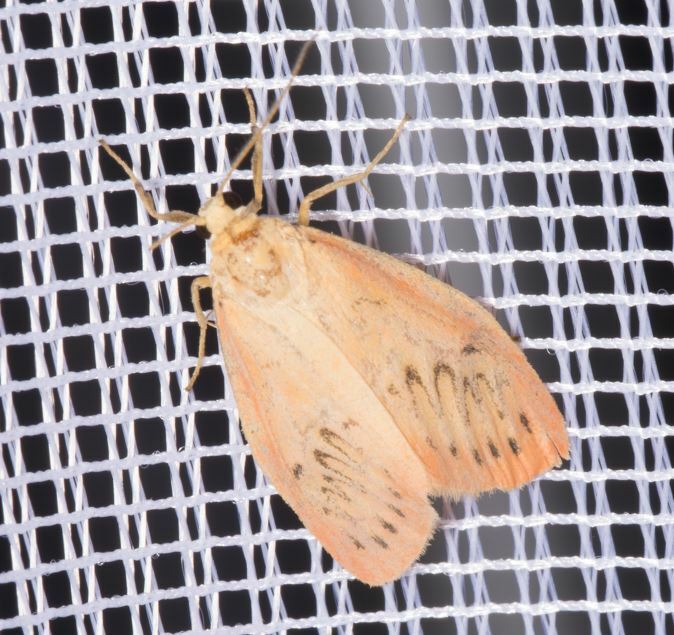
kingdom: Animalia
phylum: Arthropoda
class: Insecta
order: Lepidoptera
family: Erebidae
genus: Miltochrista
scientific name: Miltochrista miniata
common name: Rosy footman
